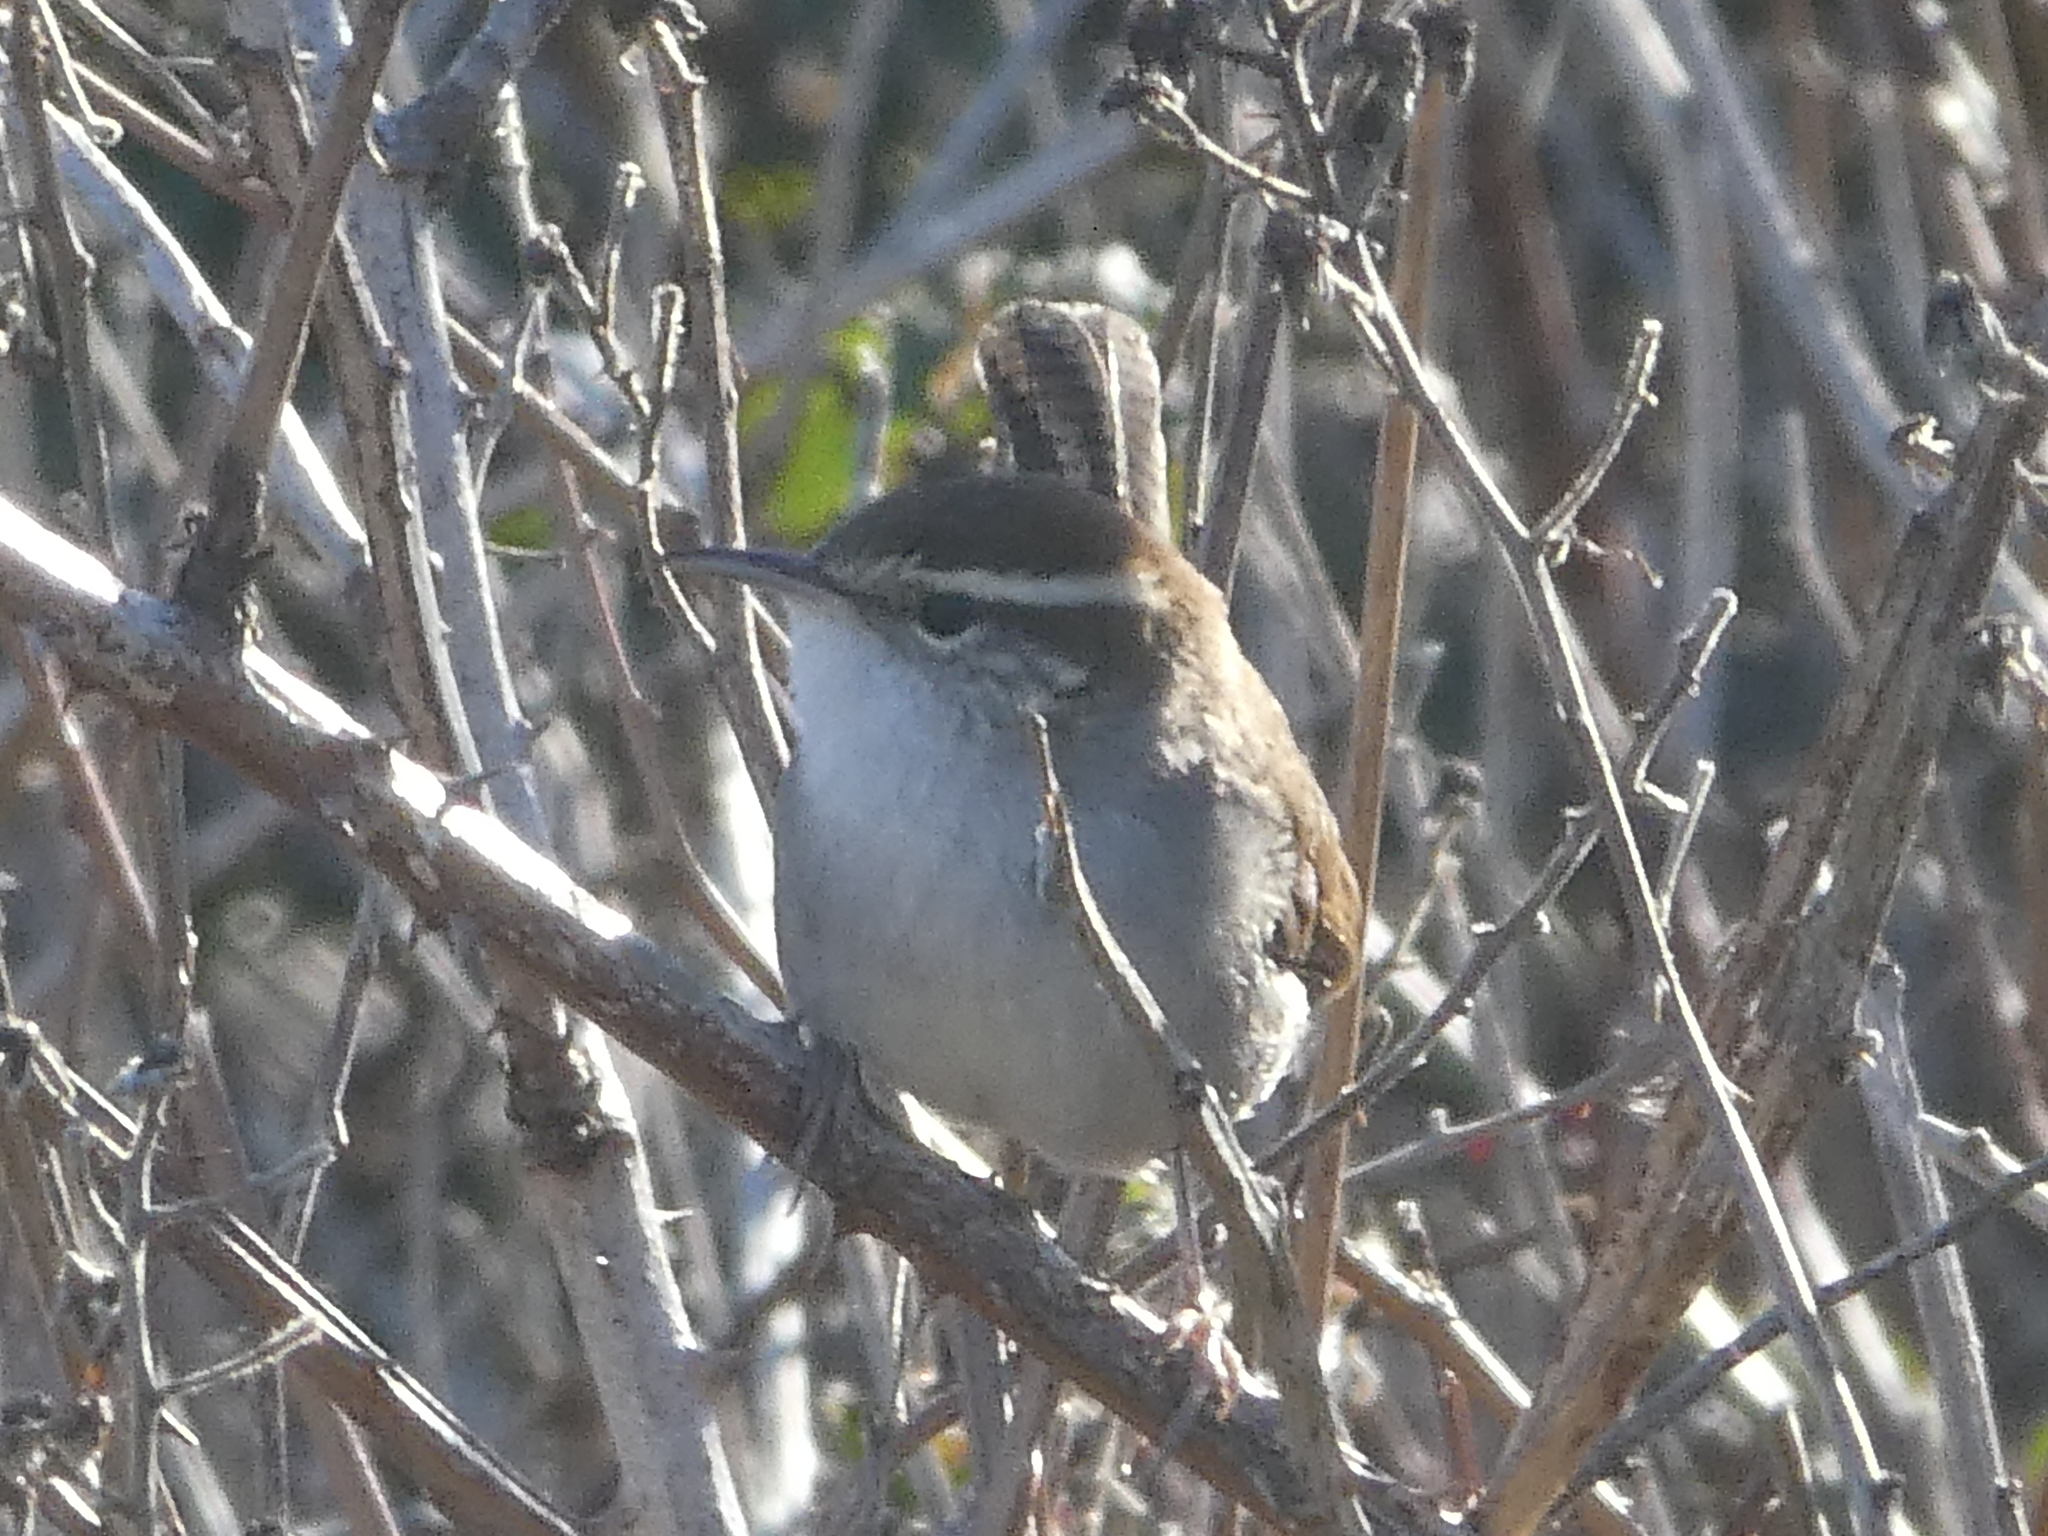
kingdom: Animalia
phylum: Chordata
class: Aves
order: Passeriformes
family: Troglodytidae
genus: Thryomanes
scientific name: Thryomanes bewickii
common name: Bewick's wren
